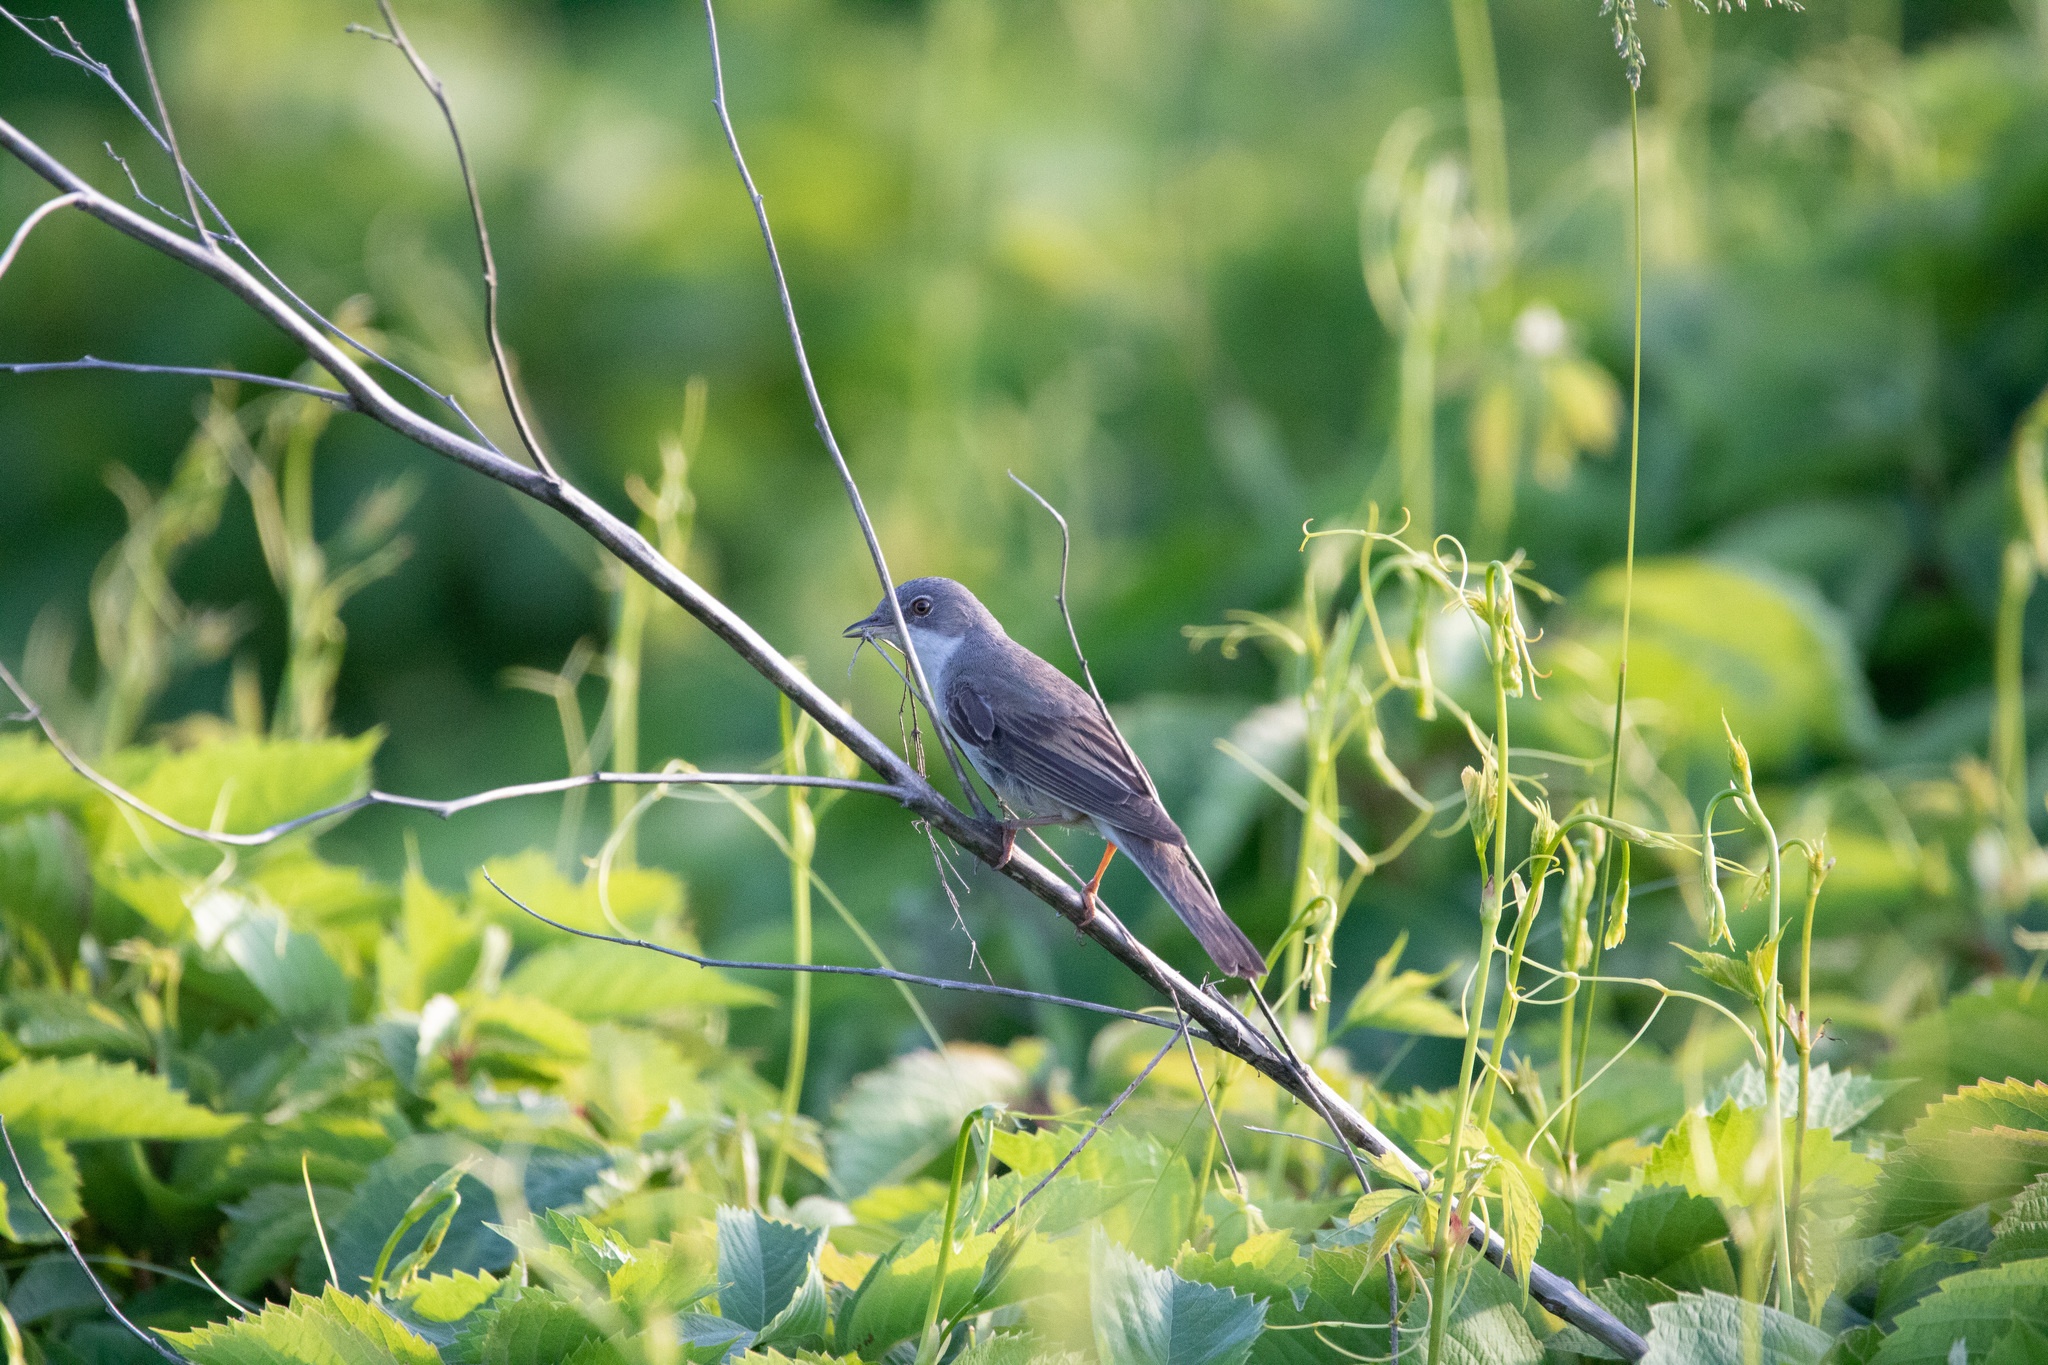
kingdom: Animalia
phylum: Chordata
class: Aves
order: Passeriformes
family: Sylviidae
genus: Sylvia
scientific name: Sylvia communis
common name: Common whitethroat
